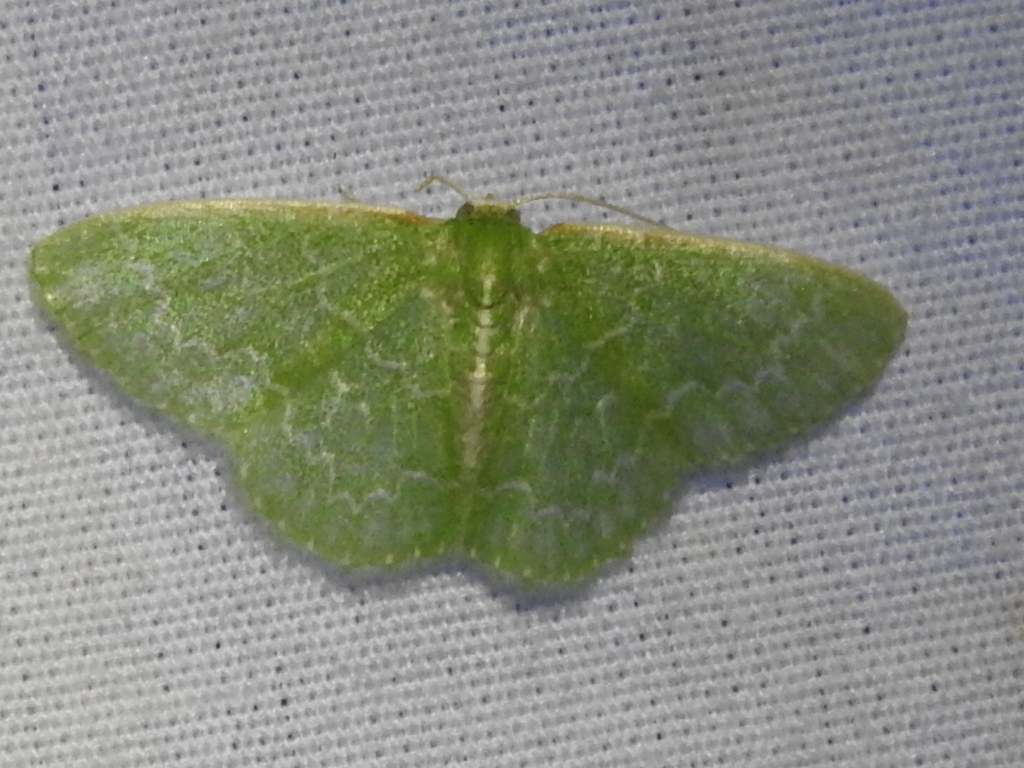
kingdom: Animalia
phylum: Arthropoda
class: Insecta
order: Lepidoptera
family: Geometridae
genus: Synchlora
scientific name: Synchlora frondaria
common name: Southern emerald
